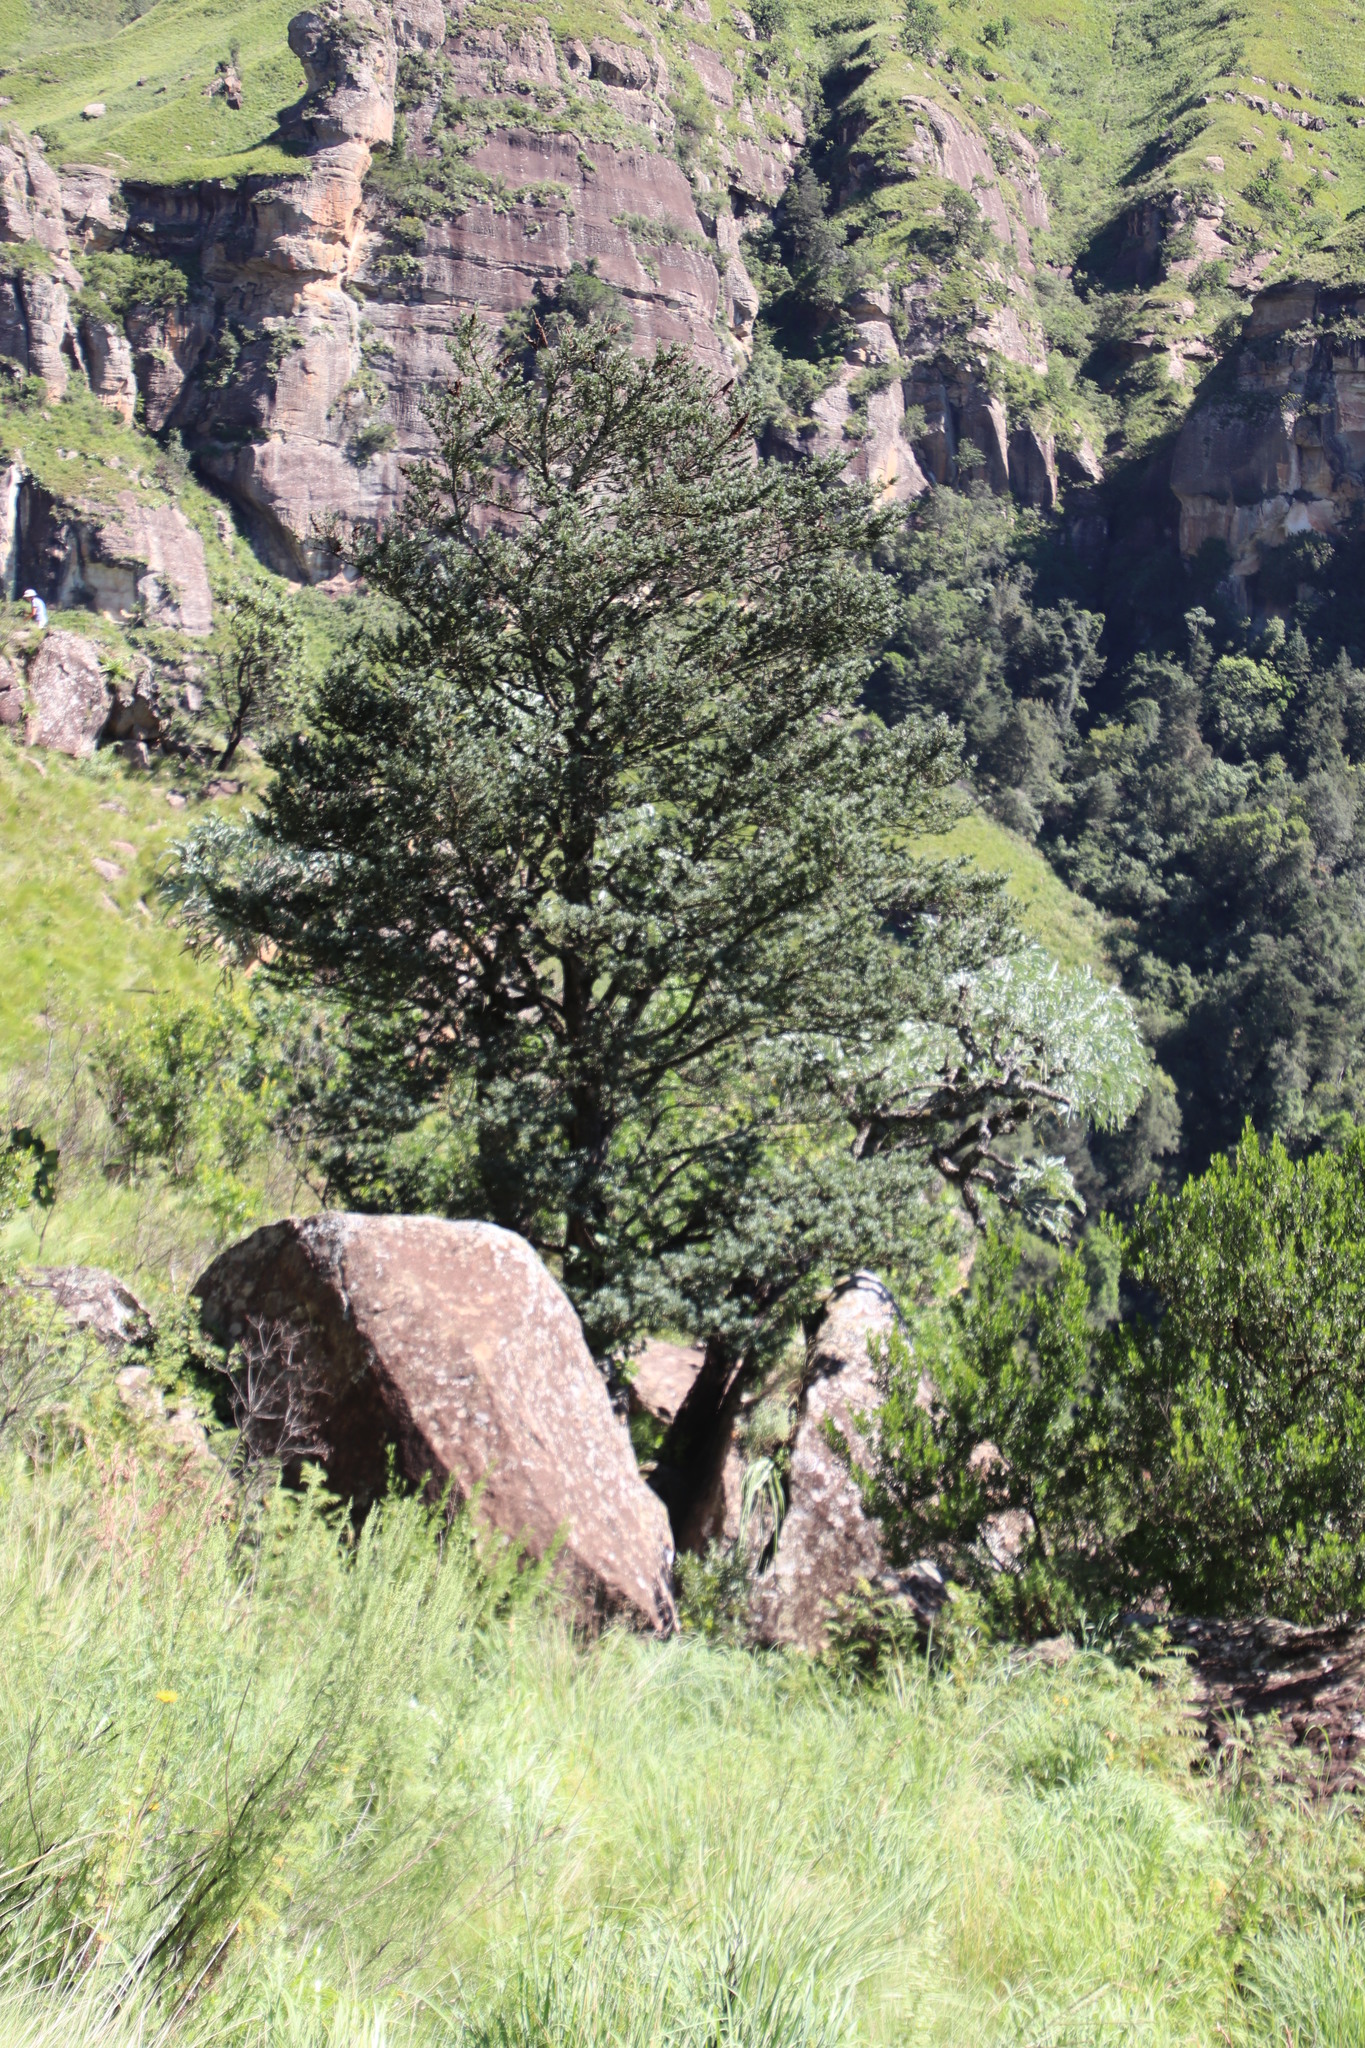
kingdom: Plantae
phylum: Tracheophyta
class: Pinopsida
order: Pinales
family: Podocarpaceae
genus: Podocarpus
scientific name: Podocarpus latifolius
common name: True yellowwood
